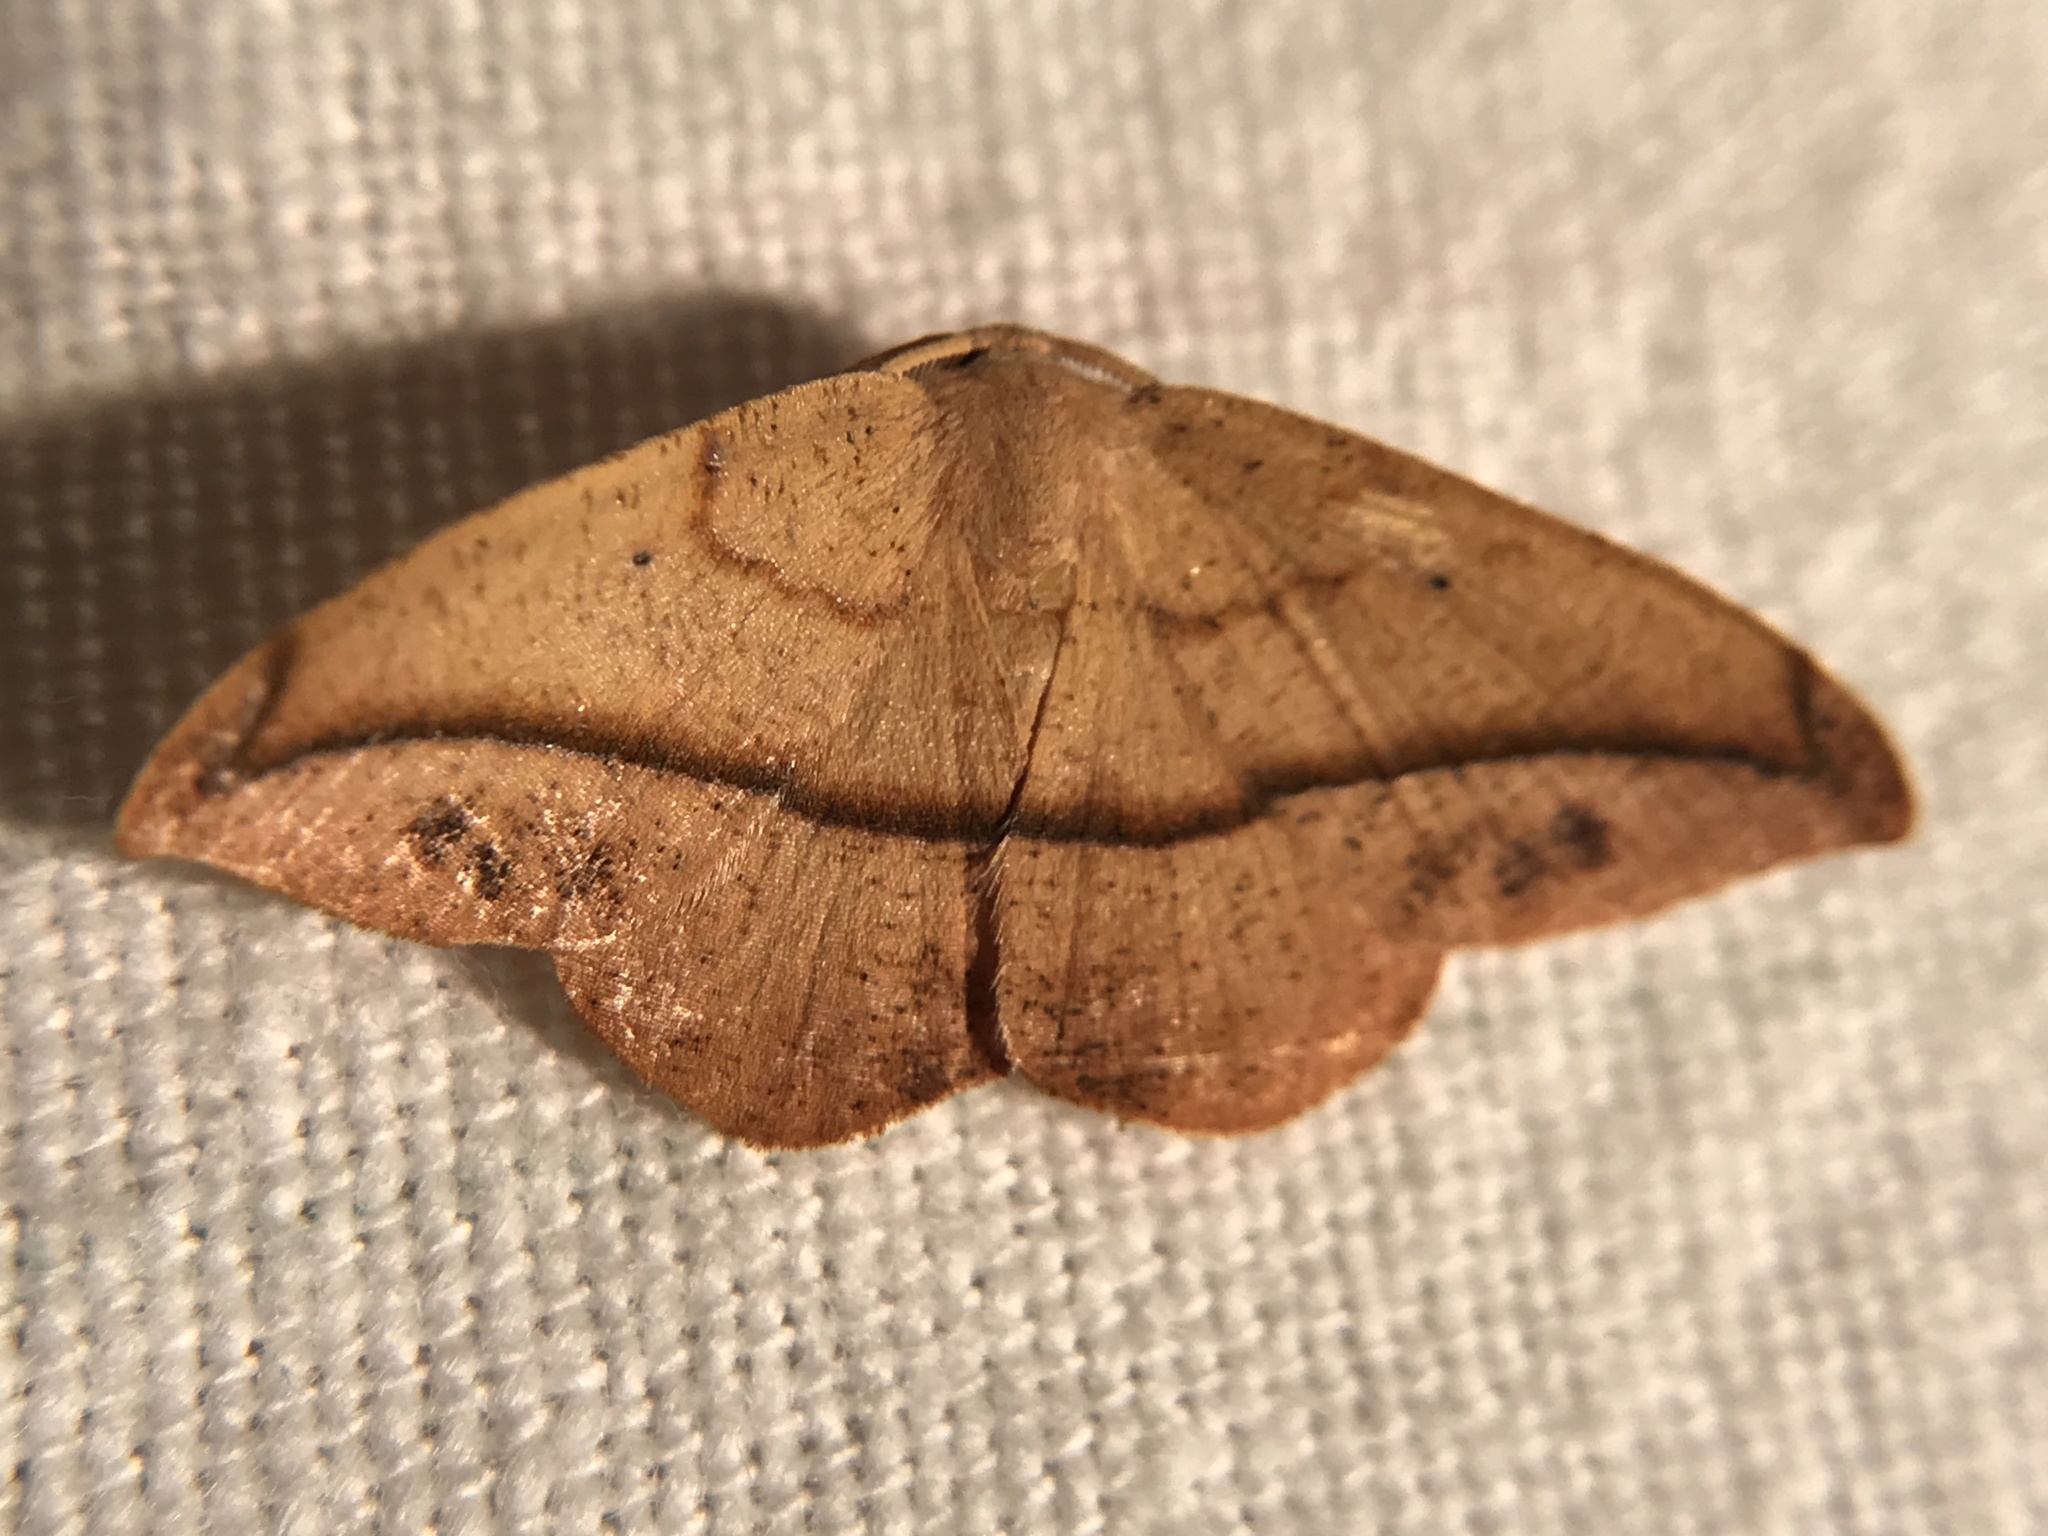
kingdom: Animalia
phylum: Arthropoda
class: Insecta
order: Lepidoptera
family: Geometridae
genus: Patalene
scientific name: Patalene olyzonaria
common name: Juniper geometer moth
